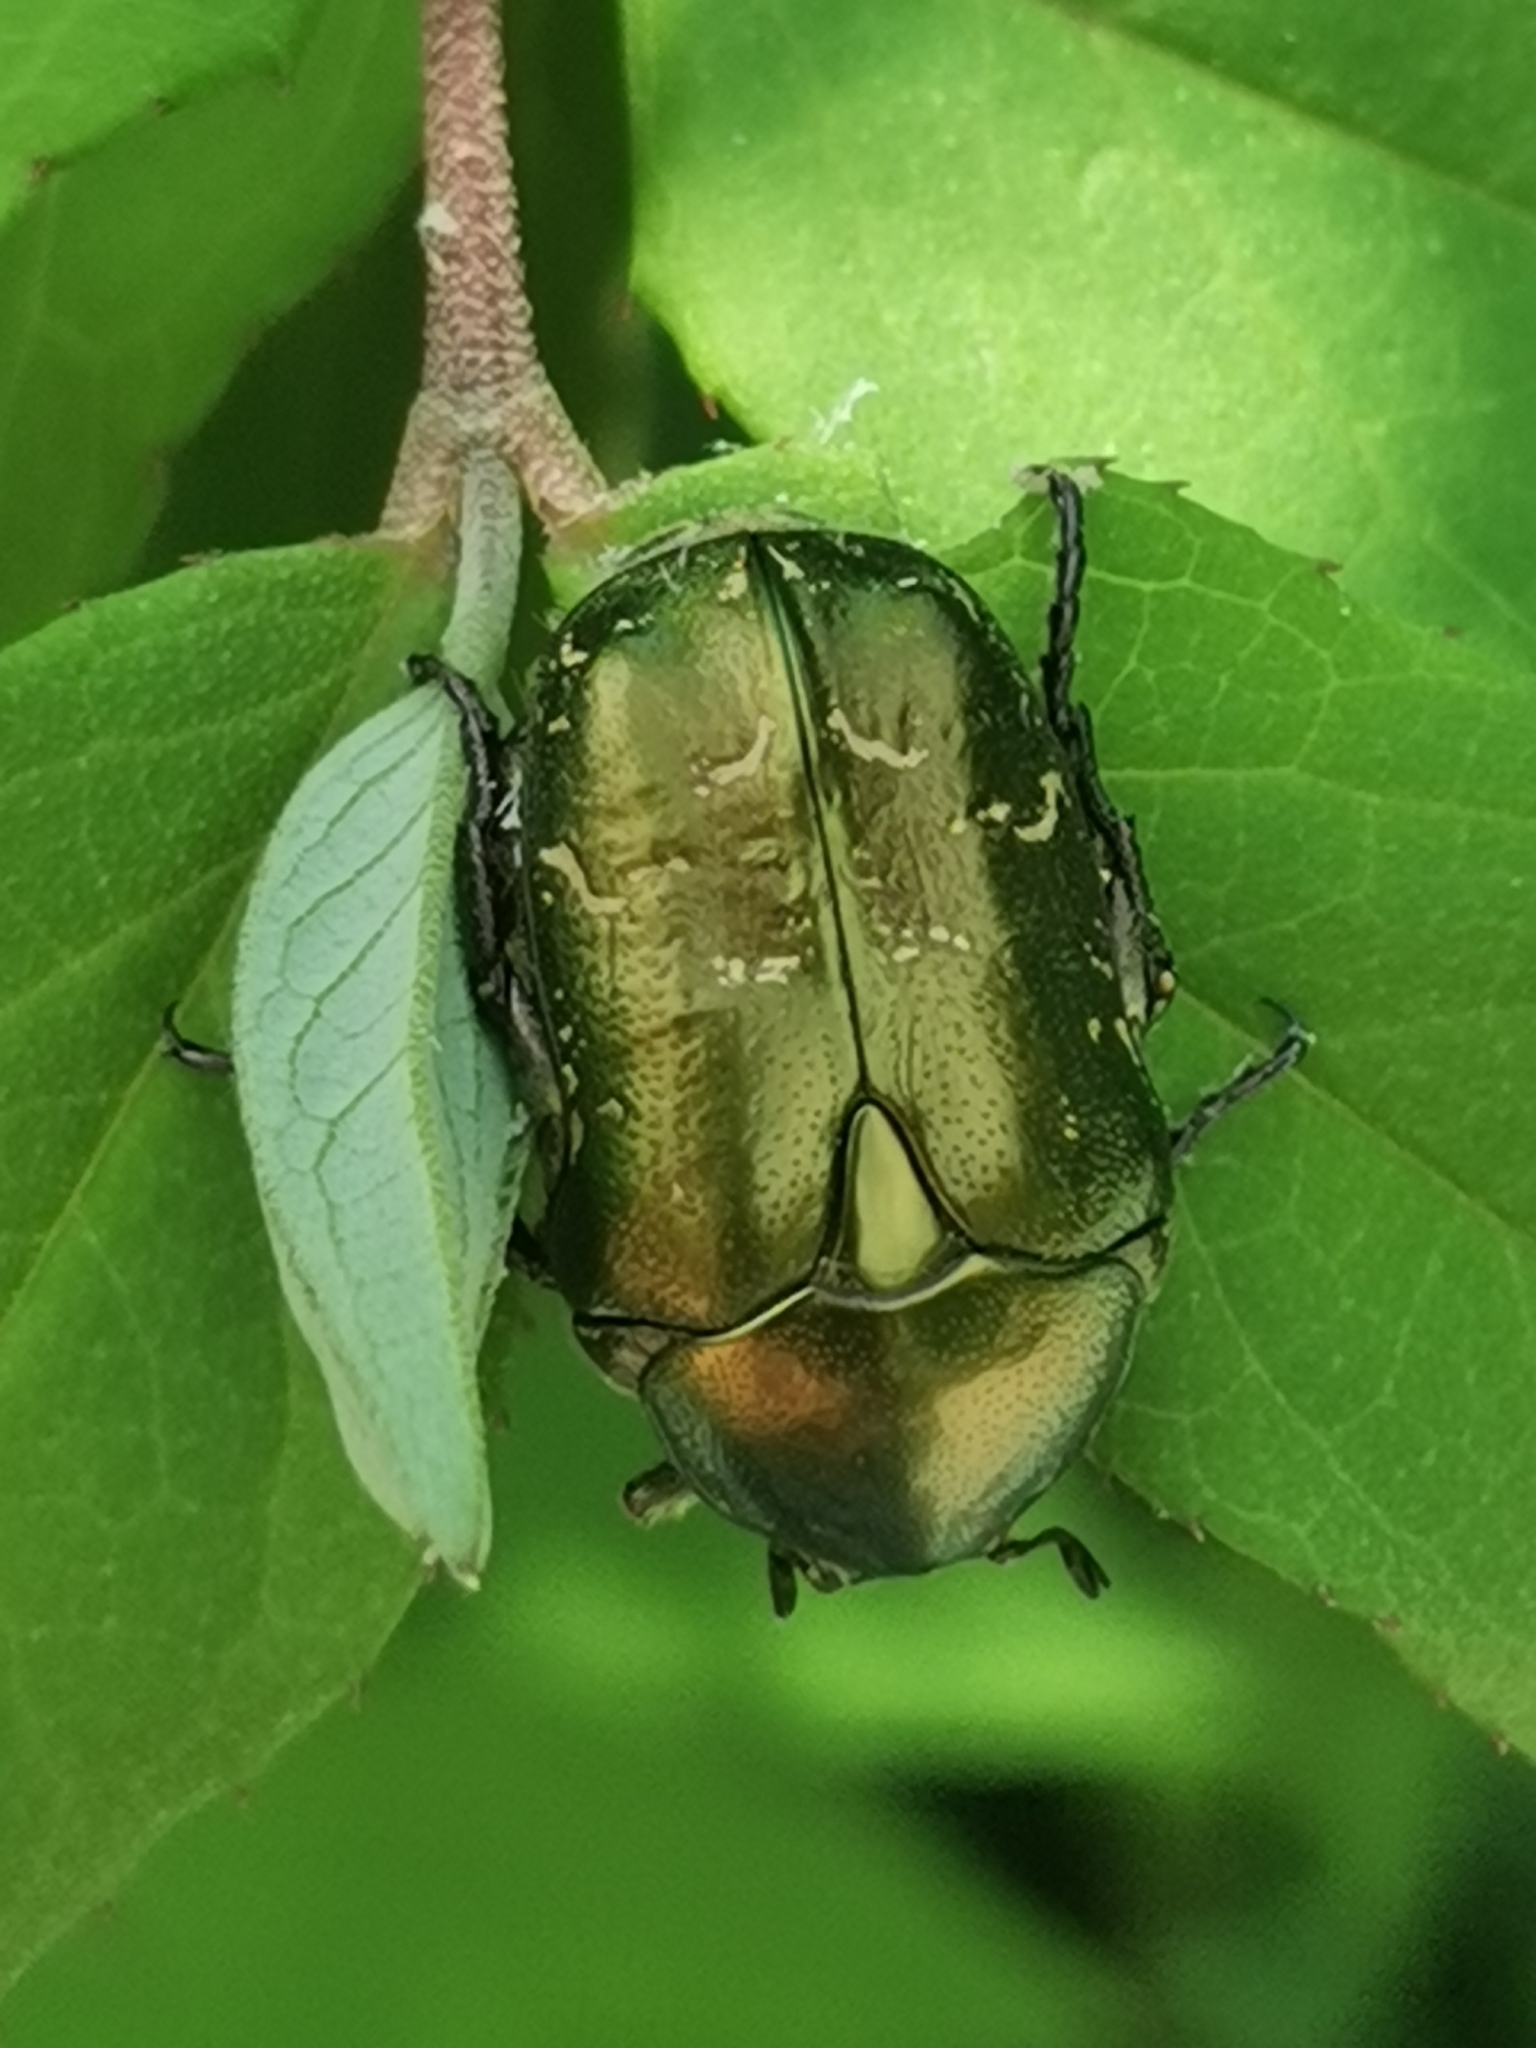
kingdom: Animalia
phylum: Arthropoda
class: Insecta
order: Coleoptera
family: Scarabaeidae
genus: Cetonia
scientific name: Cetonia aurata
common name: Rose chafer
